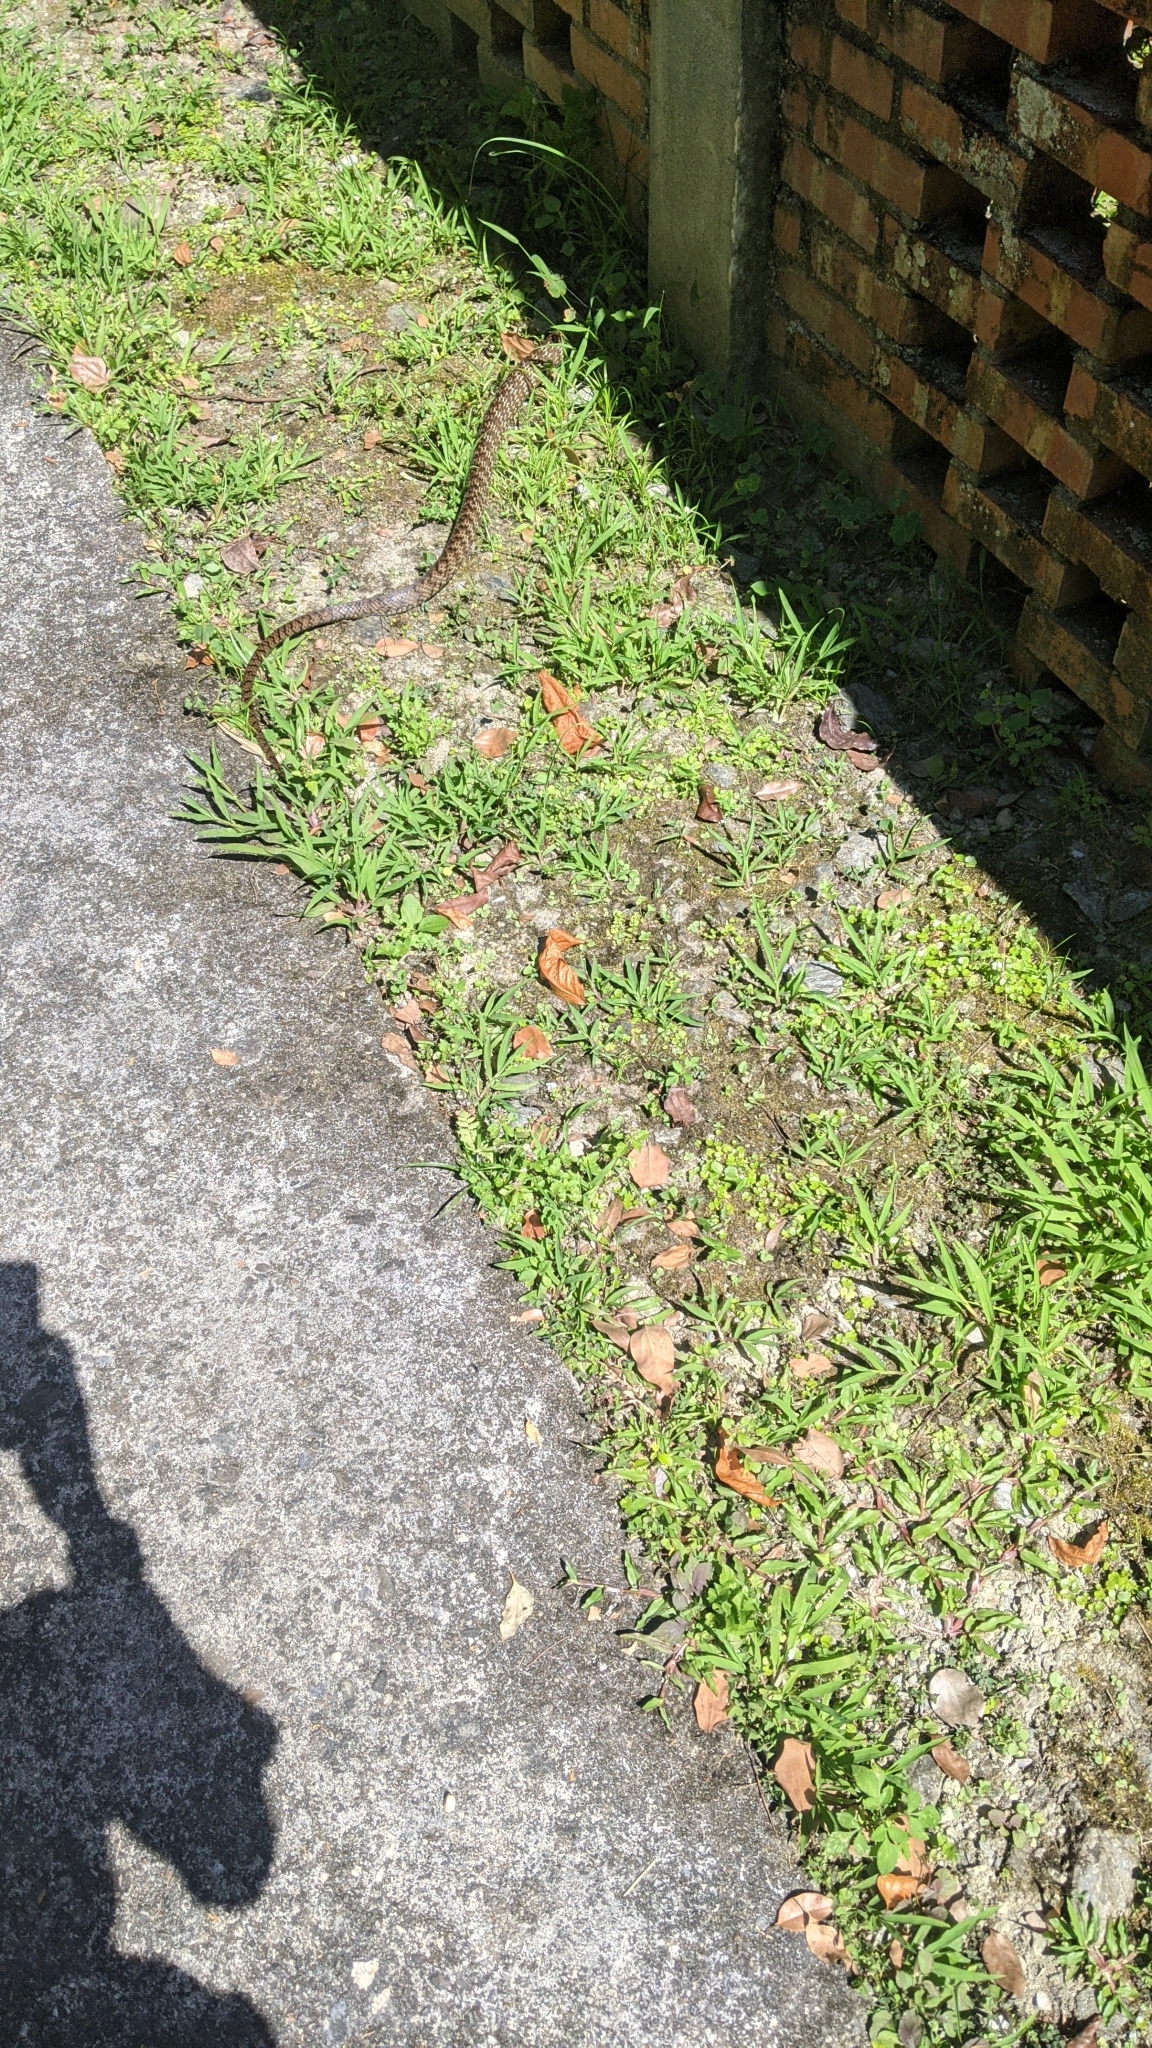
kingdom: Animalia
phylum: Chordata
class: Squamata
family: Colubridae
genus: Ptyas
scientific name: Ptyas mucosa
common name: Oriental ratsnake
